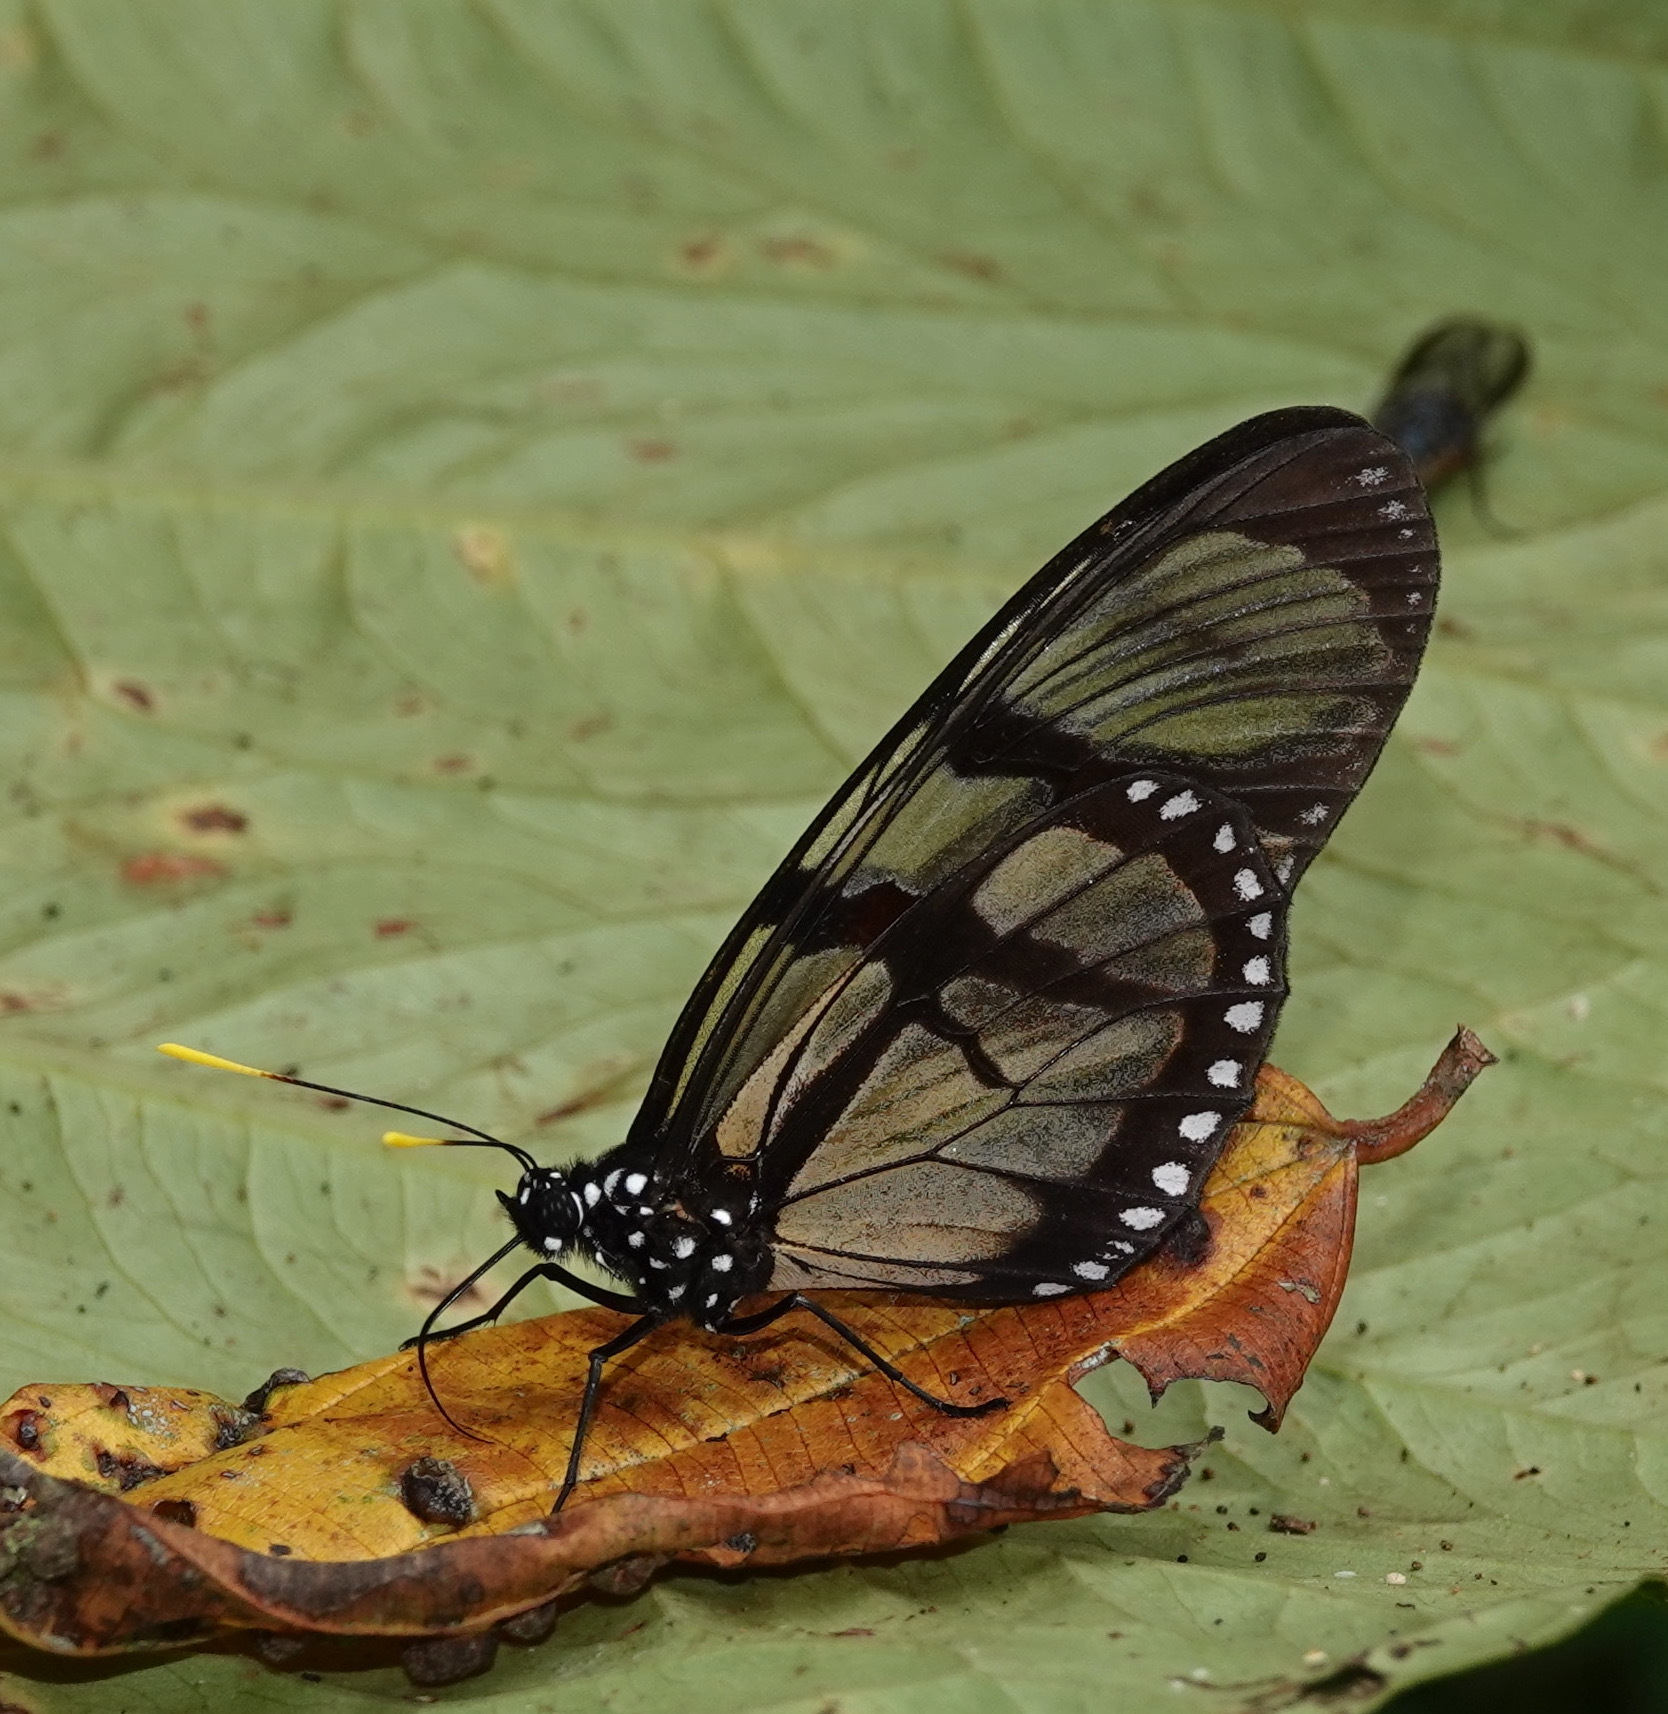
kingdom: Animalia
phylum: Arthropoda
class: Insecta
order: Lepidoptera
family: Nymphalidae
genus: Lycorea
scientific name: Lycorea ilione
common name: Clearwing mimic-queen
